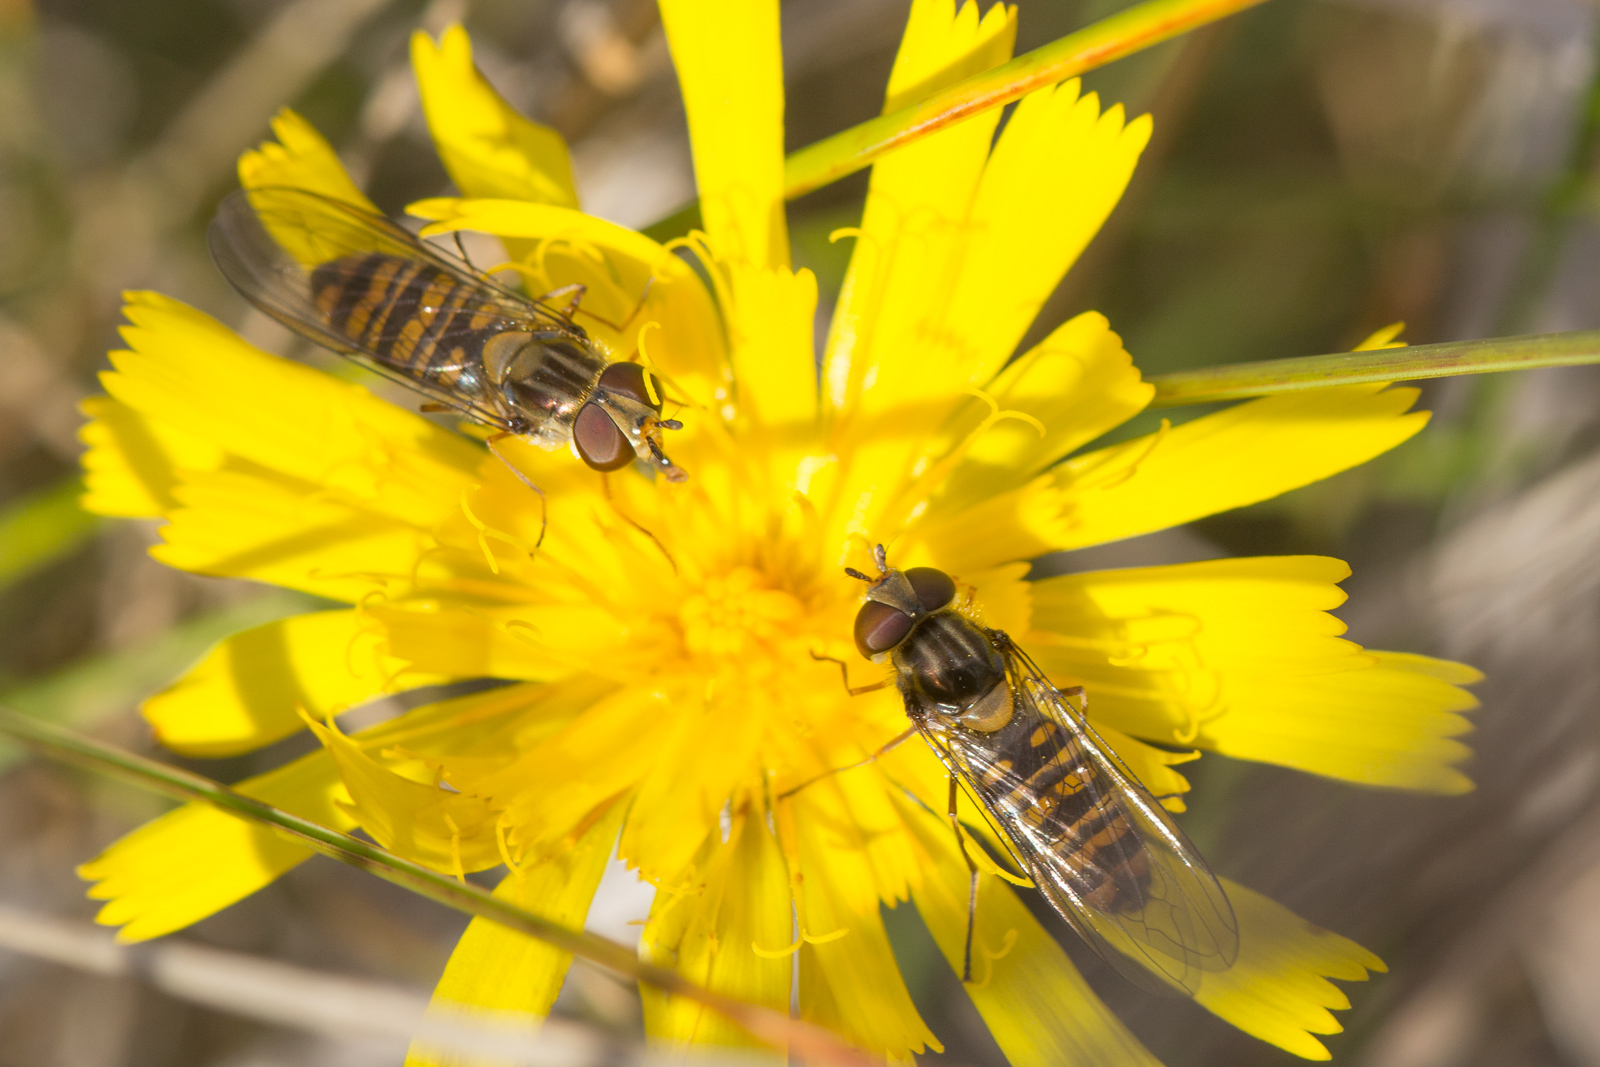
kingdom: Animalia
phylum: Arthropoda
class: Insecta
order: Diptera
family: Syrphidae
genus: Episyrphus
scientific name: Episyrphus balteatus
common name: Marmalade hoverfly
